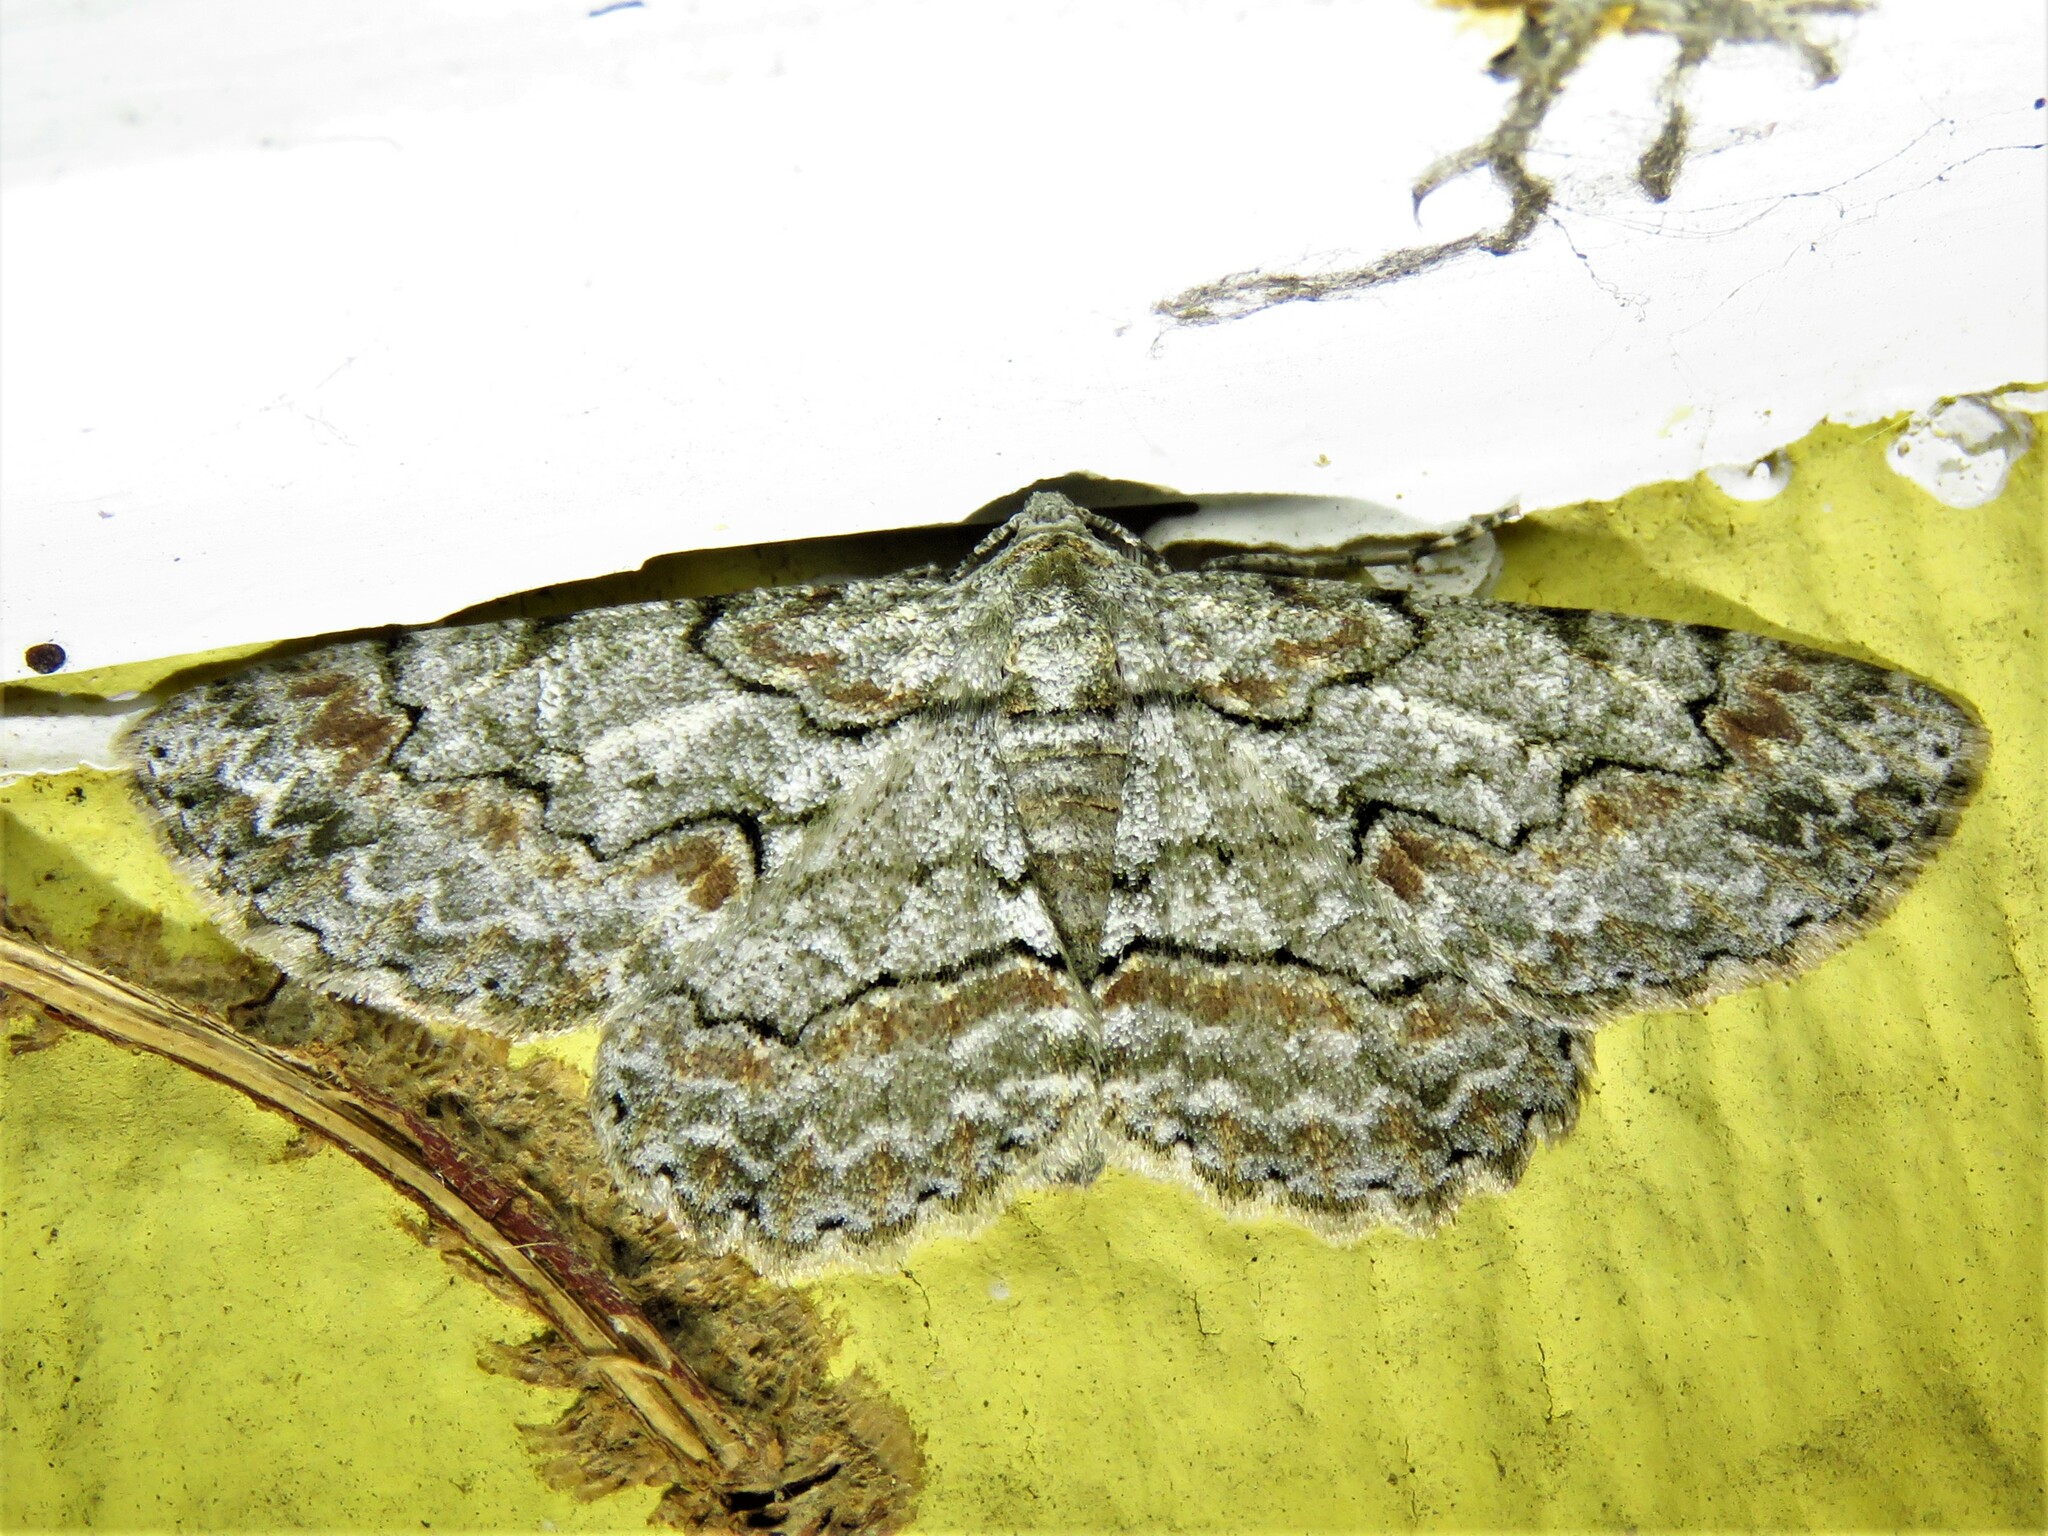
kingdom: Animalia
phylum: Arthropoda
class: Insecta
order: Lepidoptera
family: Geometridae
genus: Iridopsis
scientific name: Iridopsis defectaria
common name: Brown-shaded gray
